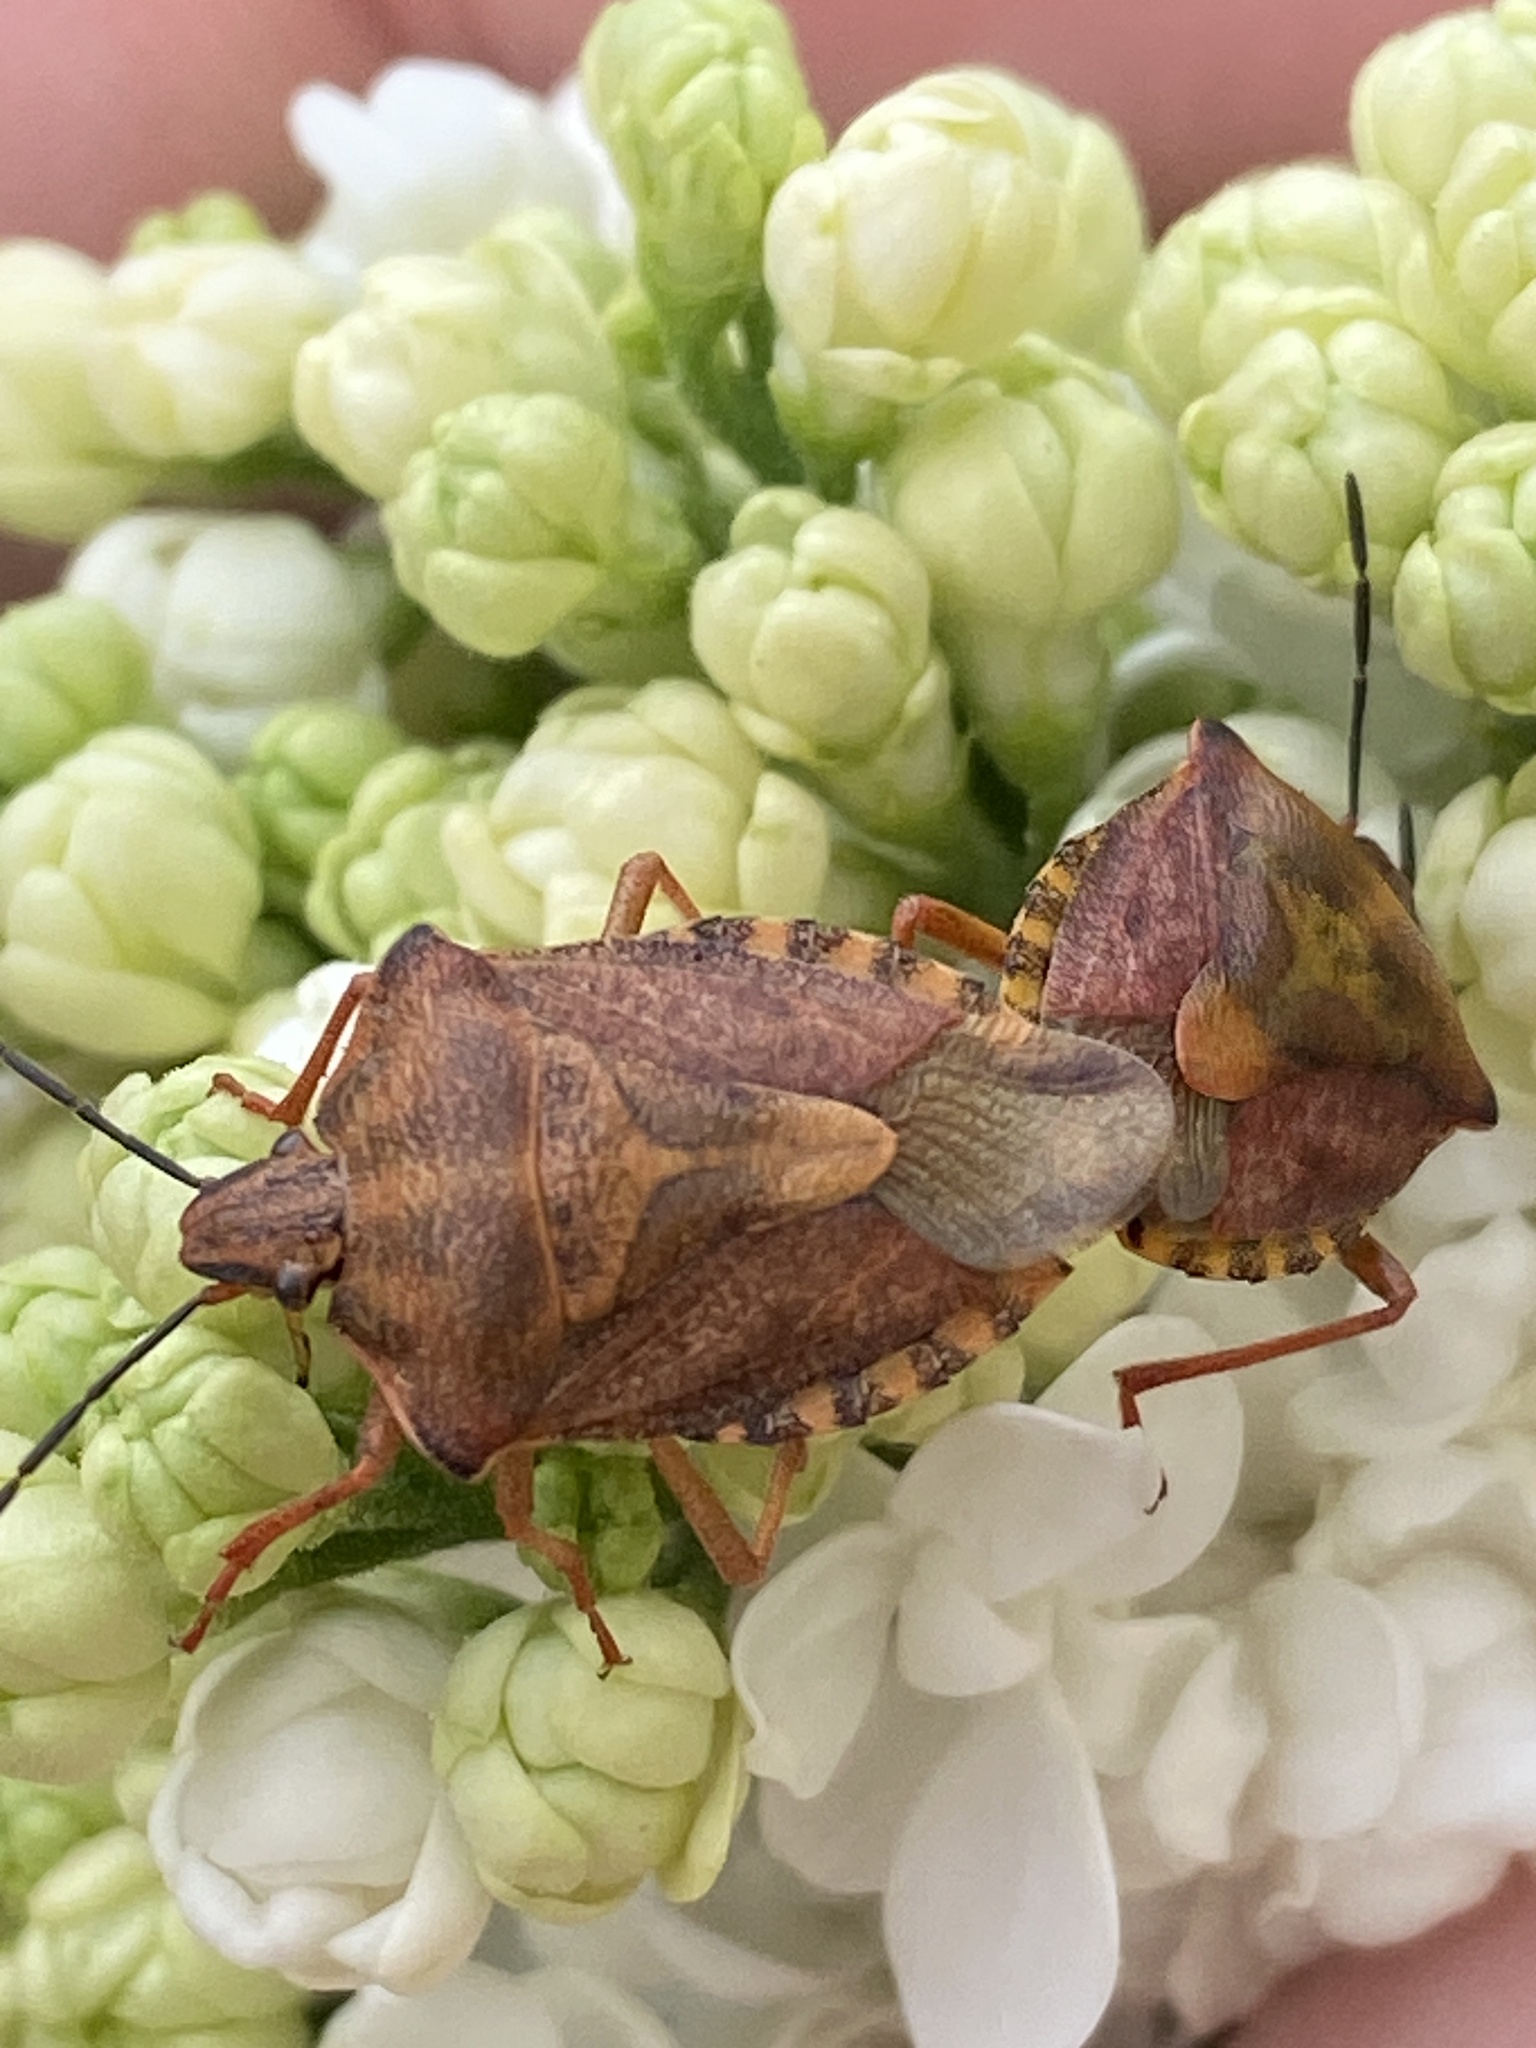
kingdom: Animalia
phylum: Arthropoda
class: Insecta
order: Hemiptera
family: Pentatomidae
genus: Carpocoris
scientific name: Carpocoris purpureipennis
